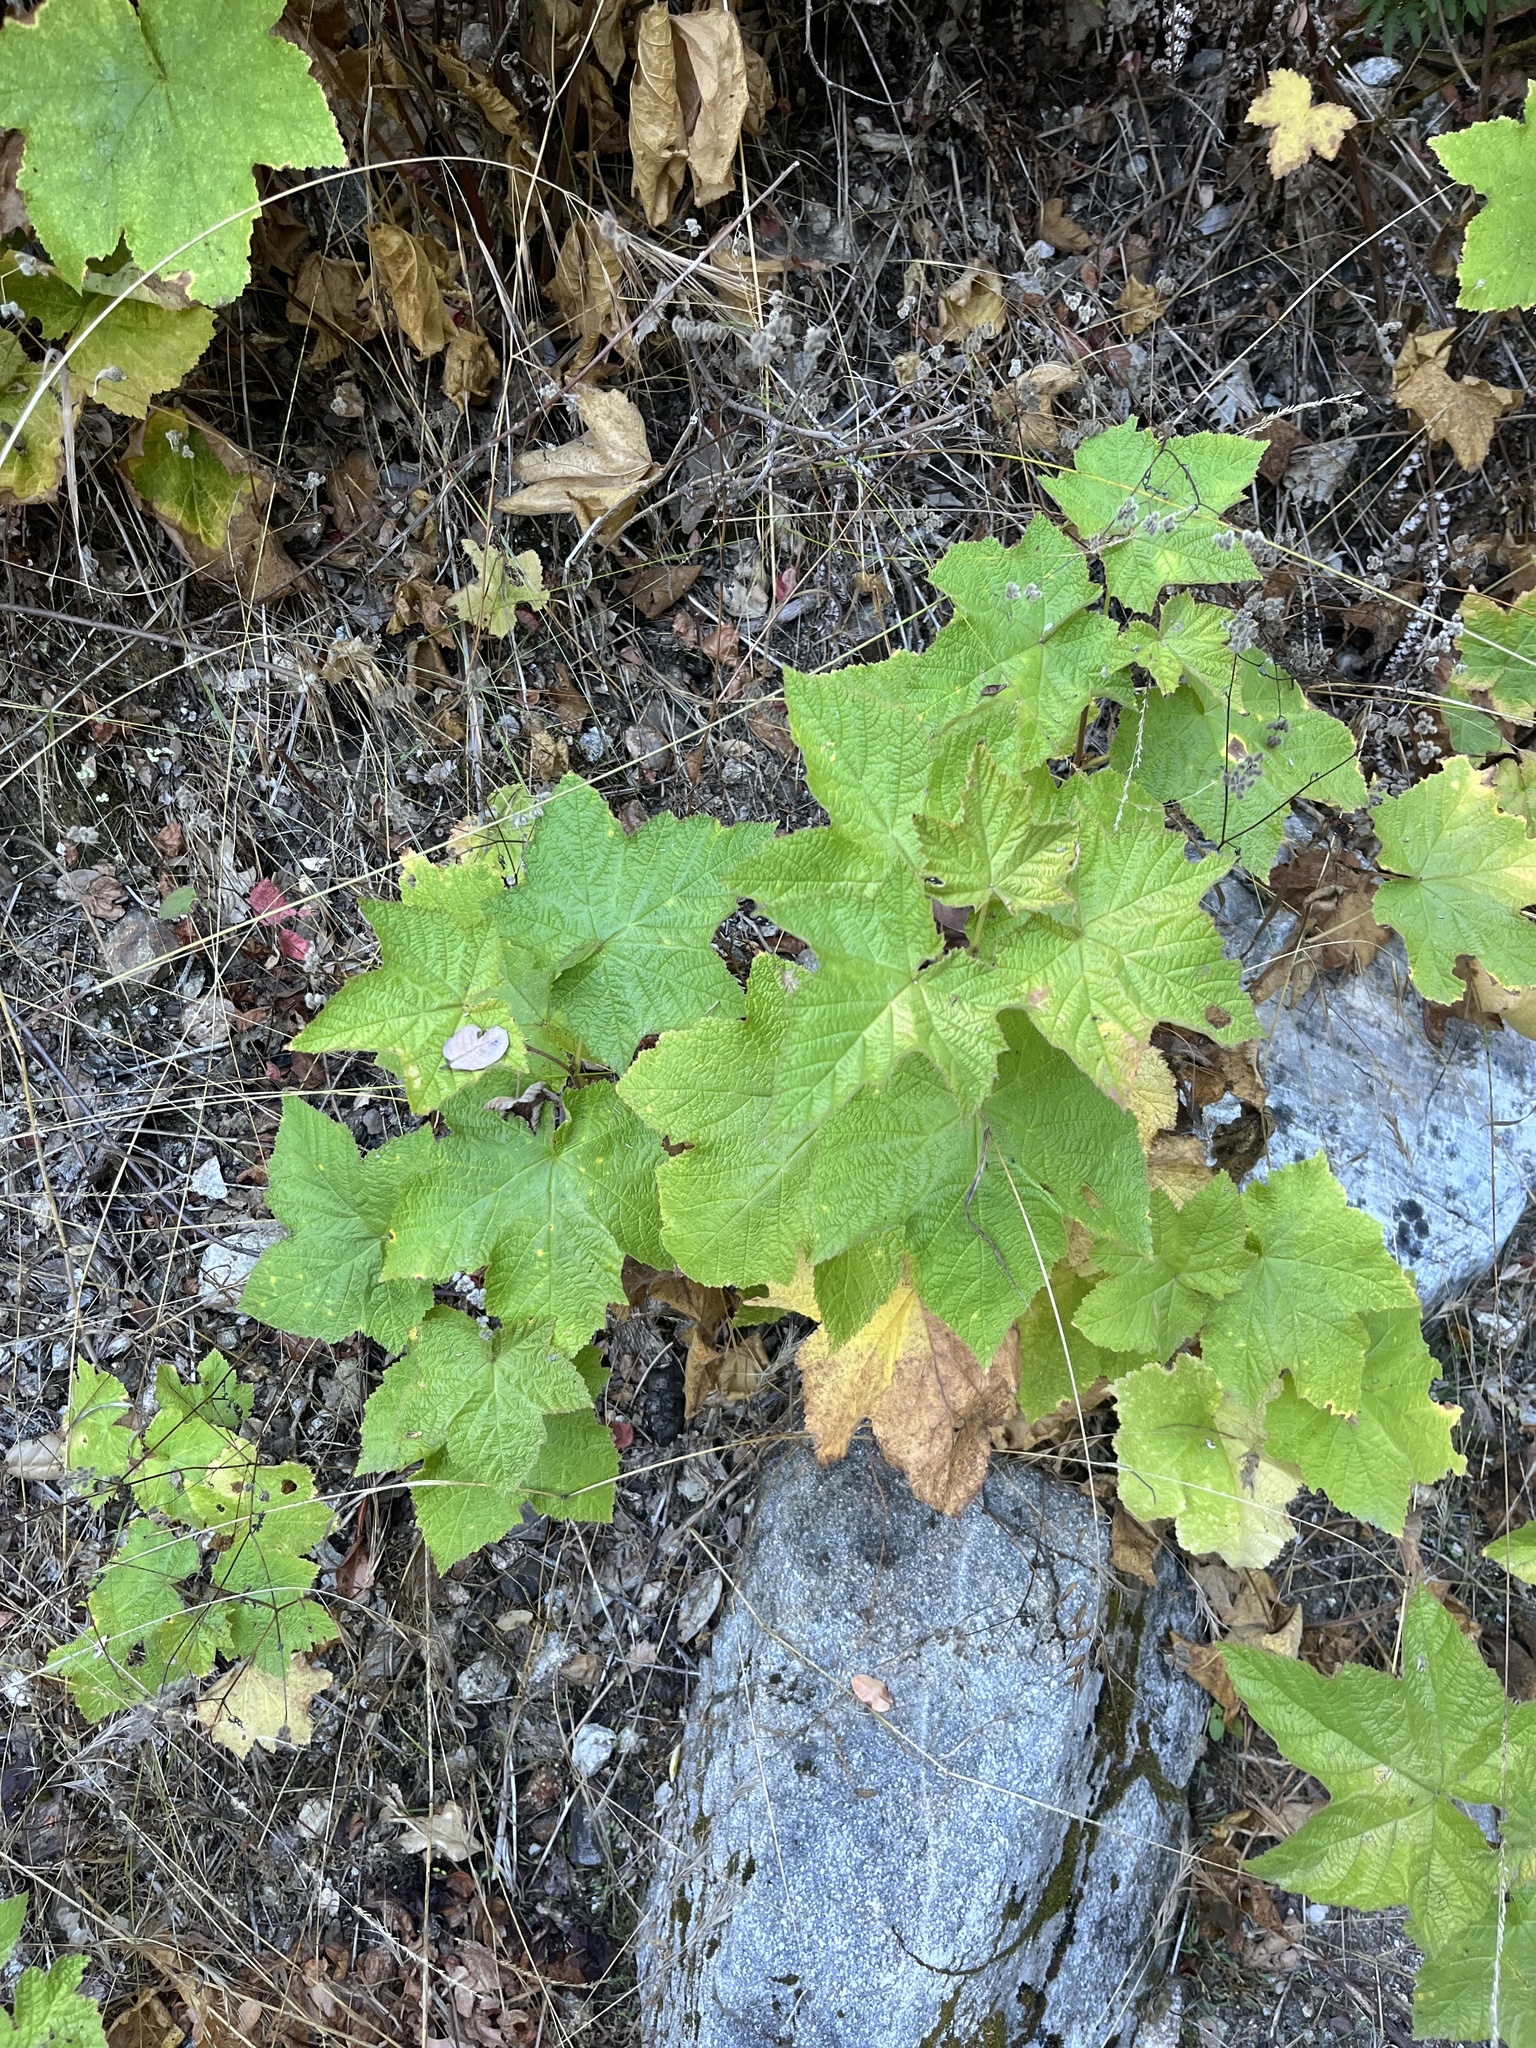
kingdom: Plantae
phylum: Tracheophyta
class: Magnoliopsida
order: Rosales
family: Rosaceae
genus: Rubus
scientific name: Rubus parviflorus
